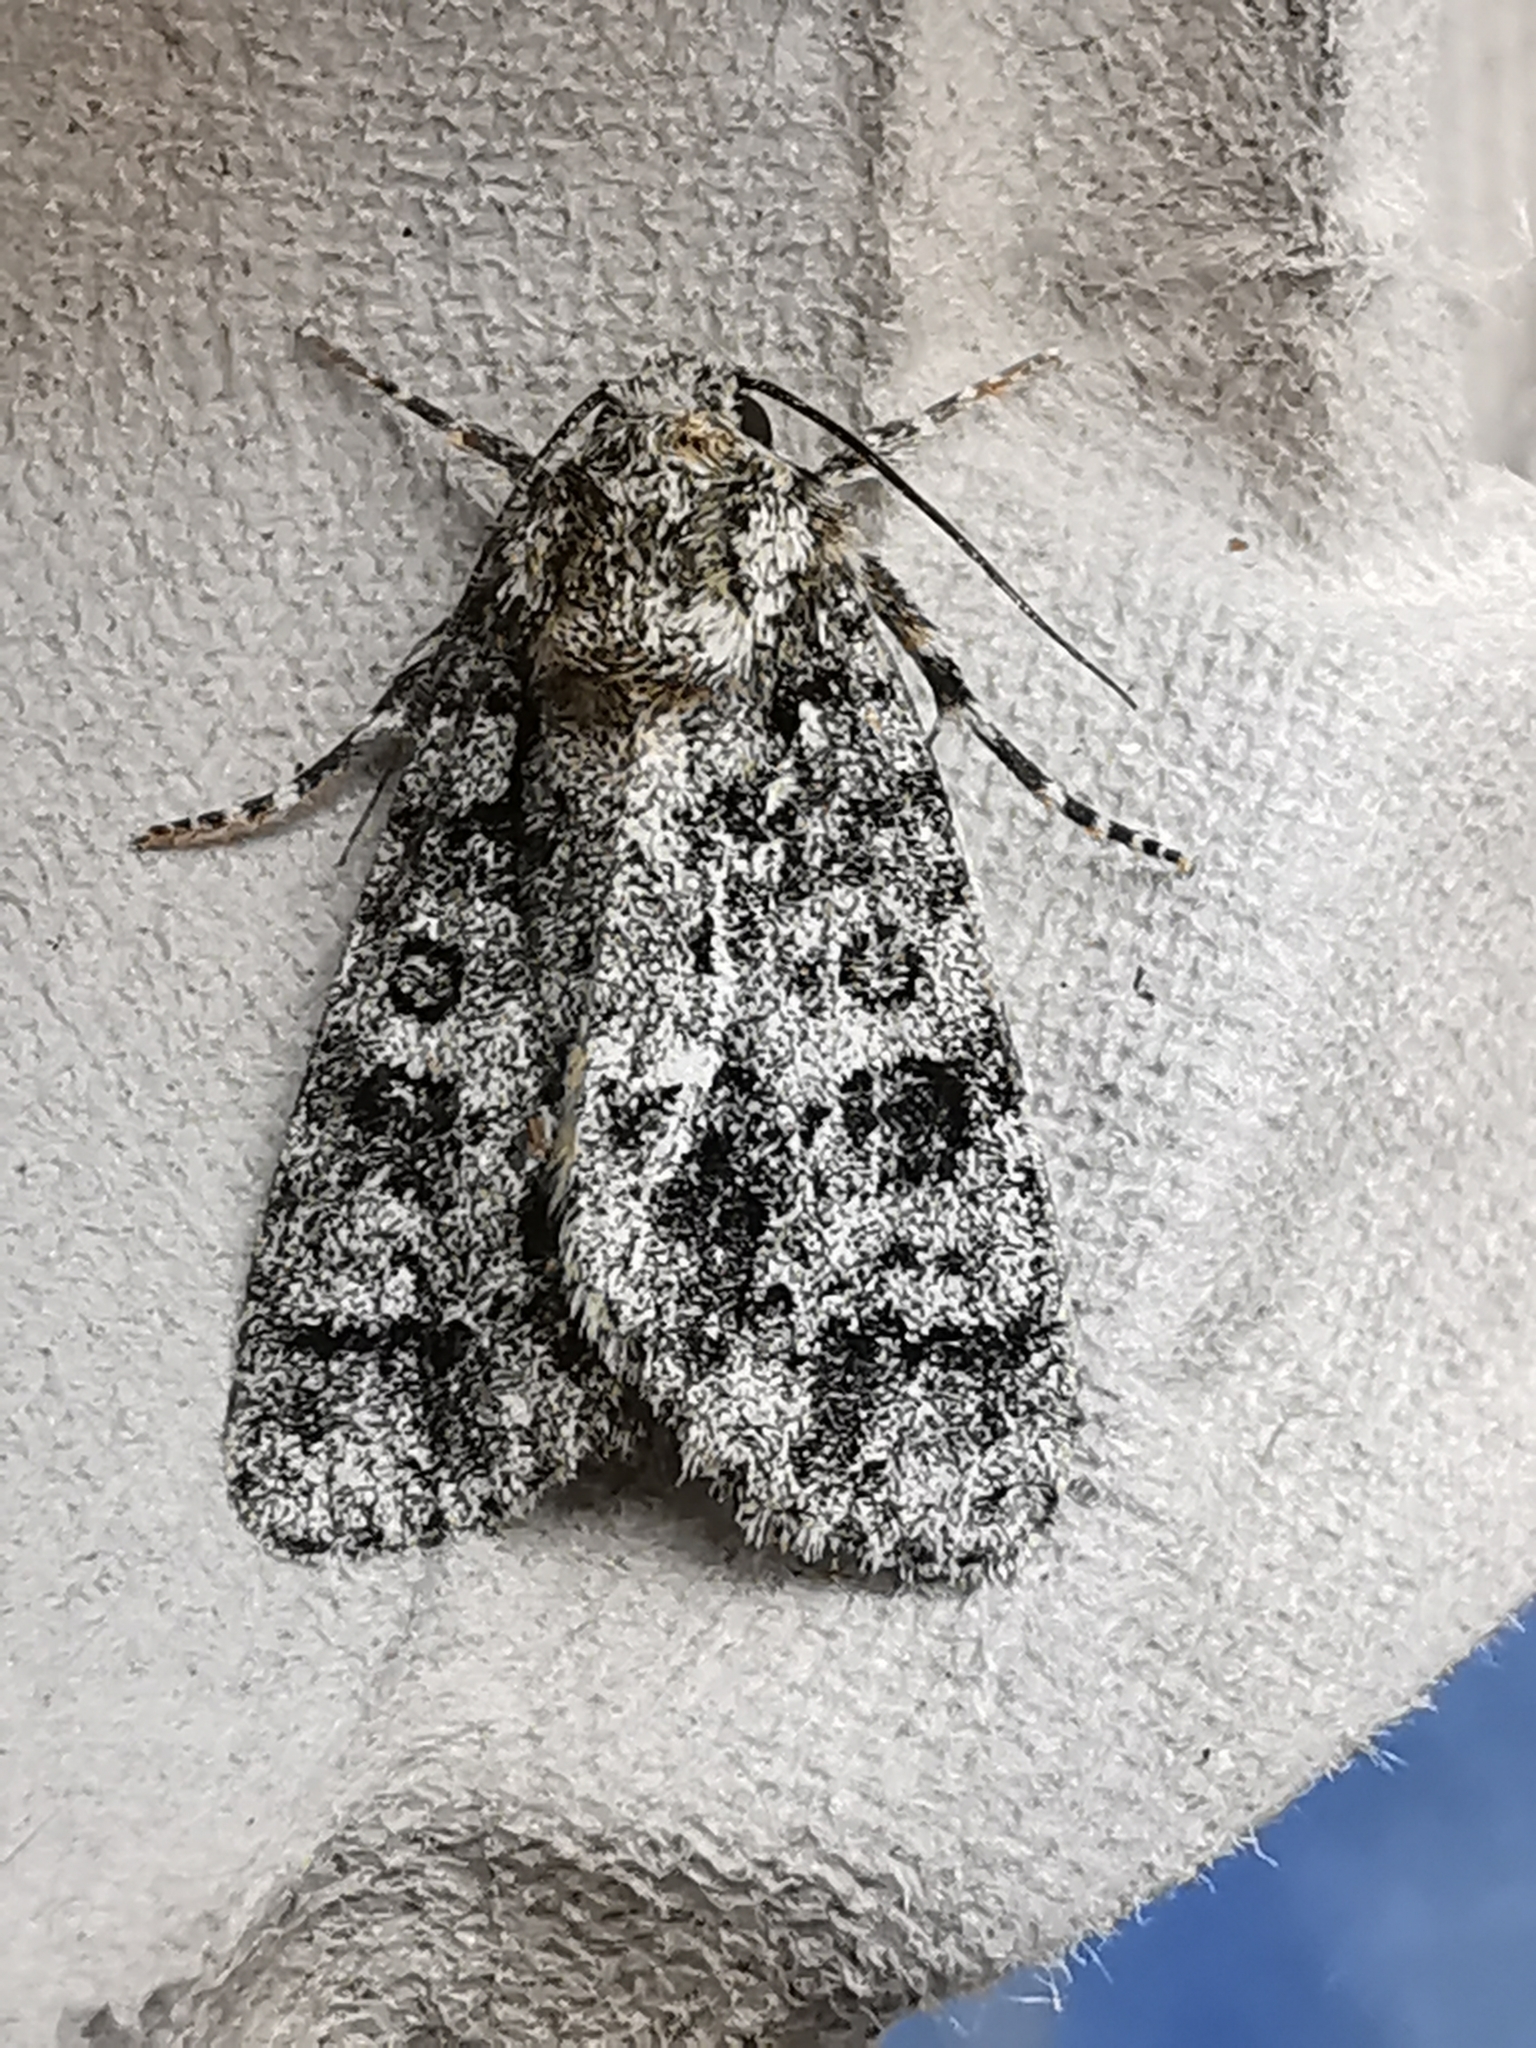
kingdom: Animalia
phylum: Arthropoda
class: Insecta
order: Lepidoptera
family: Noctuidae
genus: Acronicta
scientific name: Acronicta rumicis
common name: Knot grass
